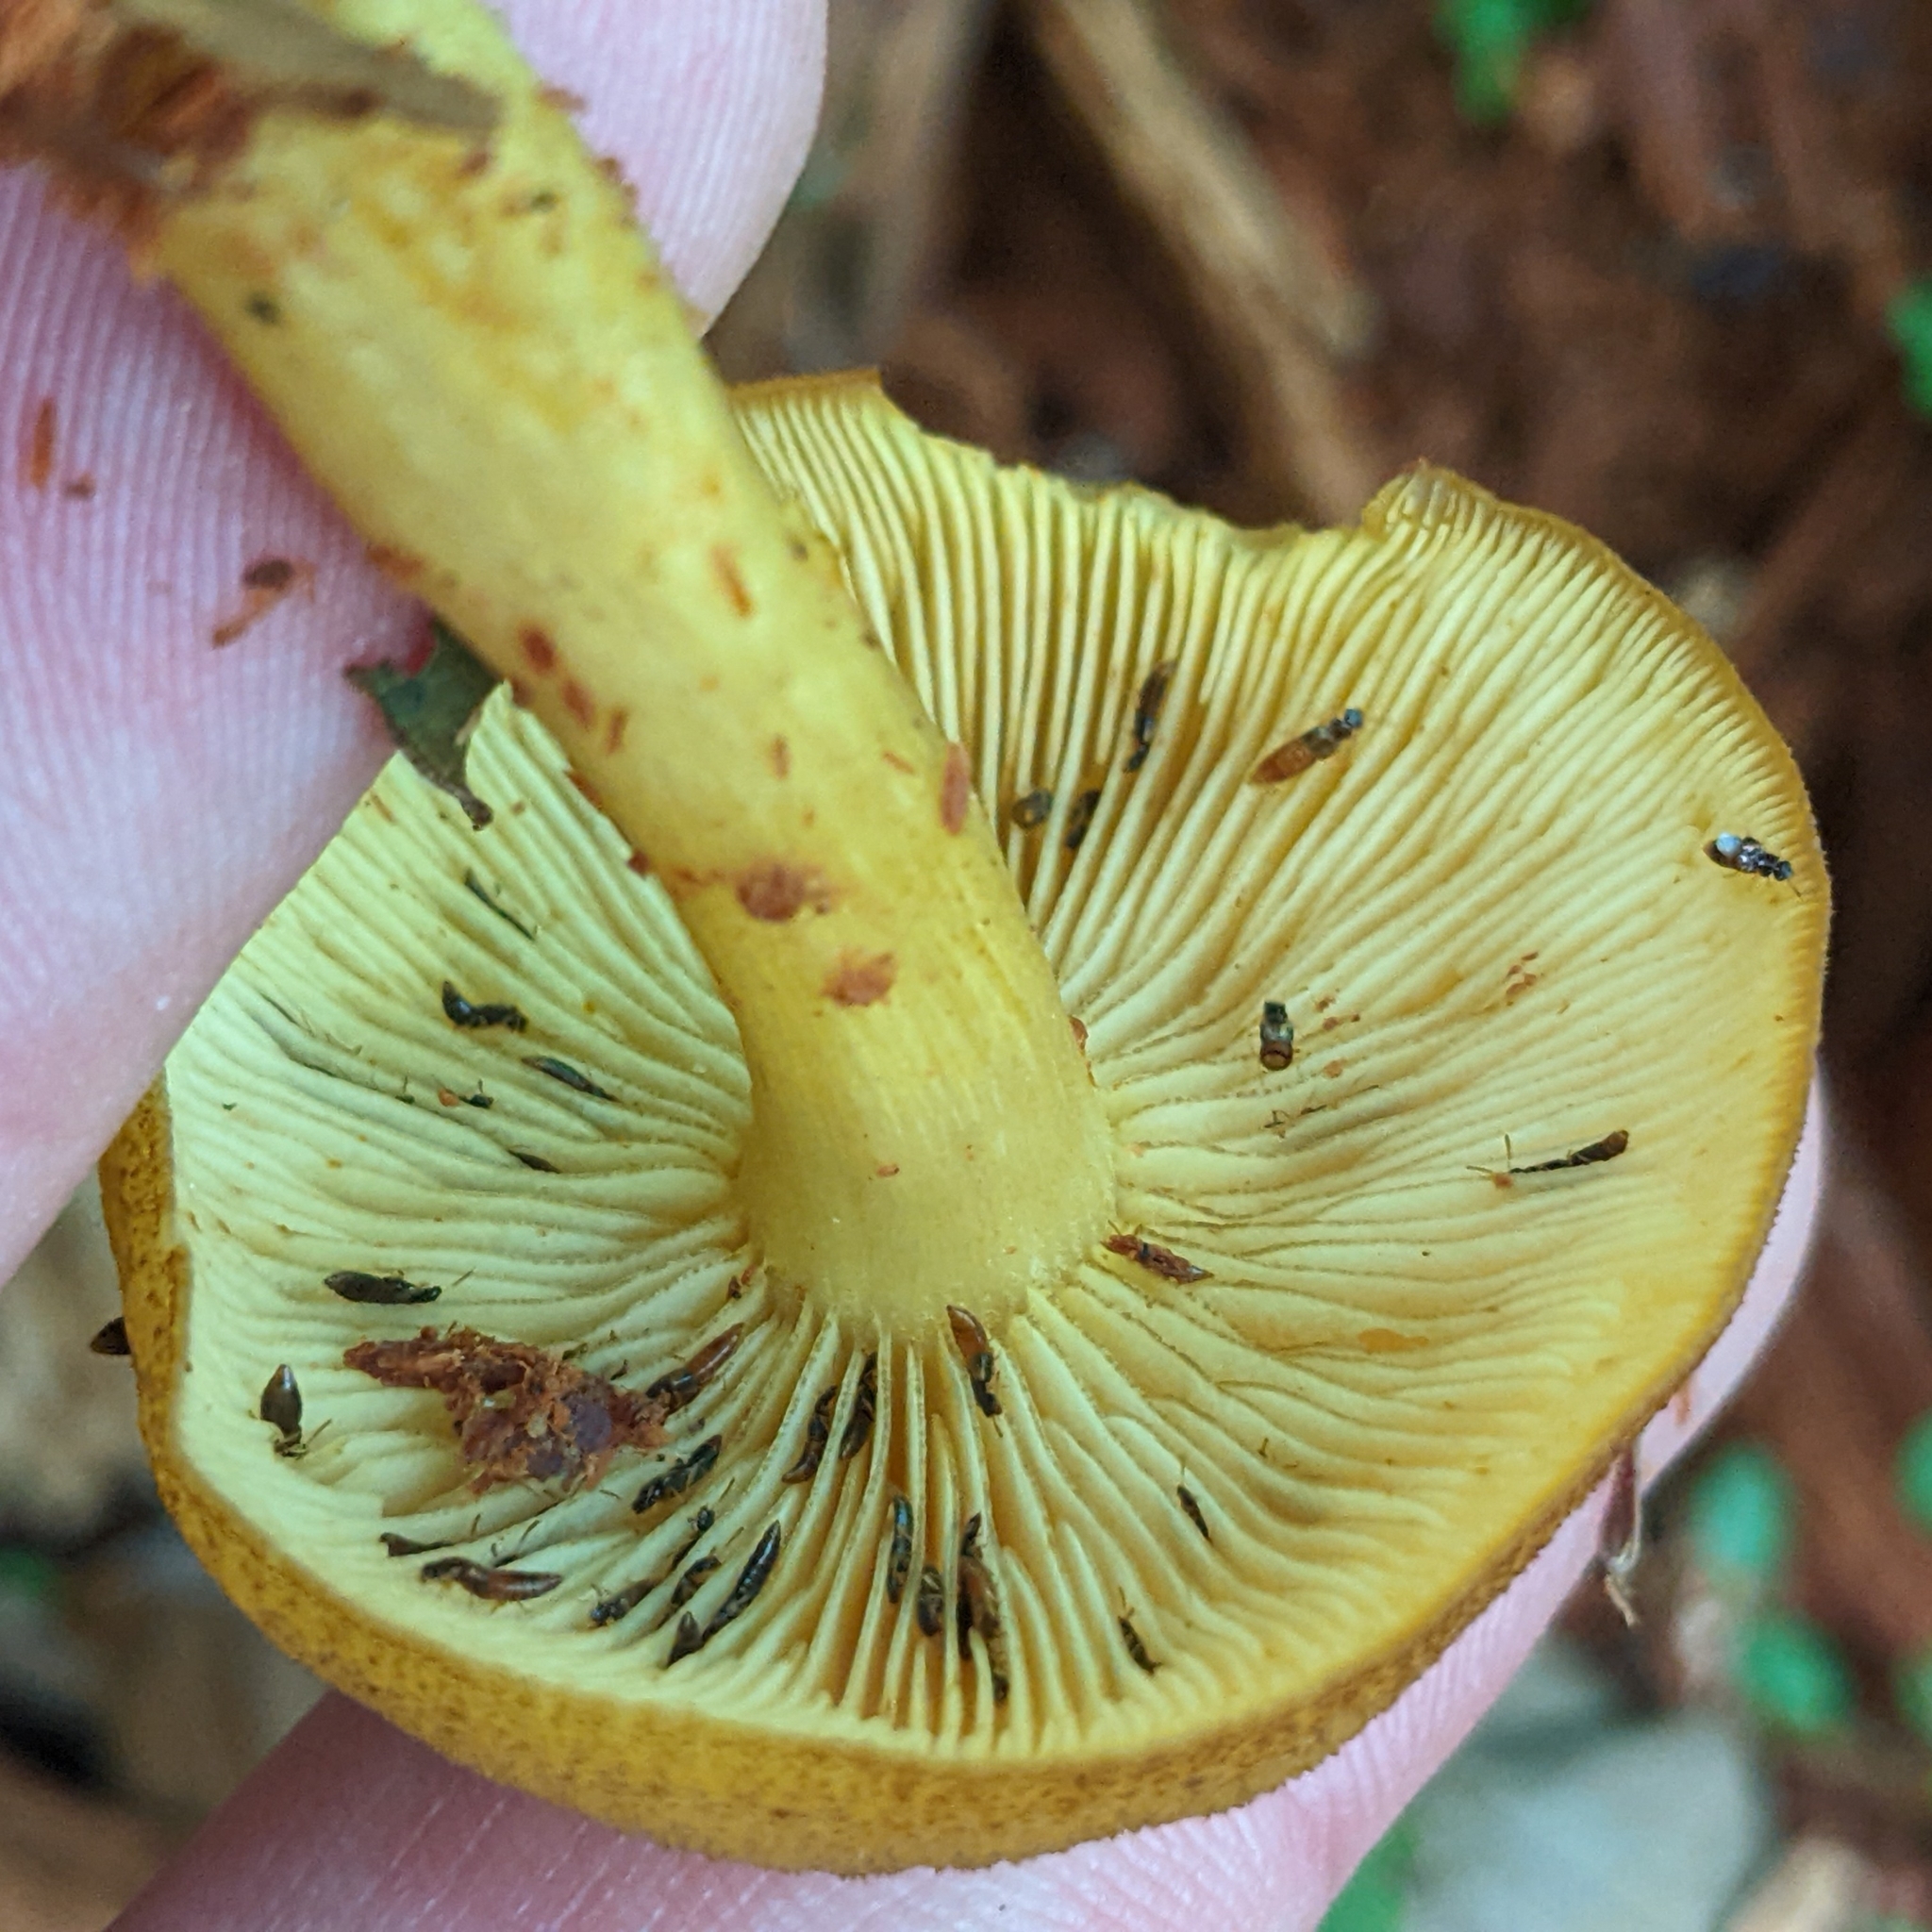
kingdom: Fungi
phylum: Basidiomycota
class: Agaricomycetes
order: Agaricales
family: Tricholomataceae
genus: Tricholomopsis
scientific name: Tricholomopsis decora
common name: Prunes and custard
